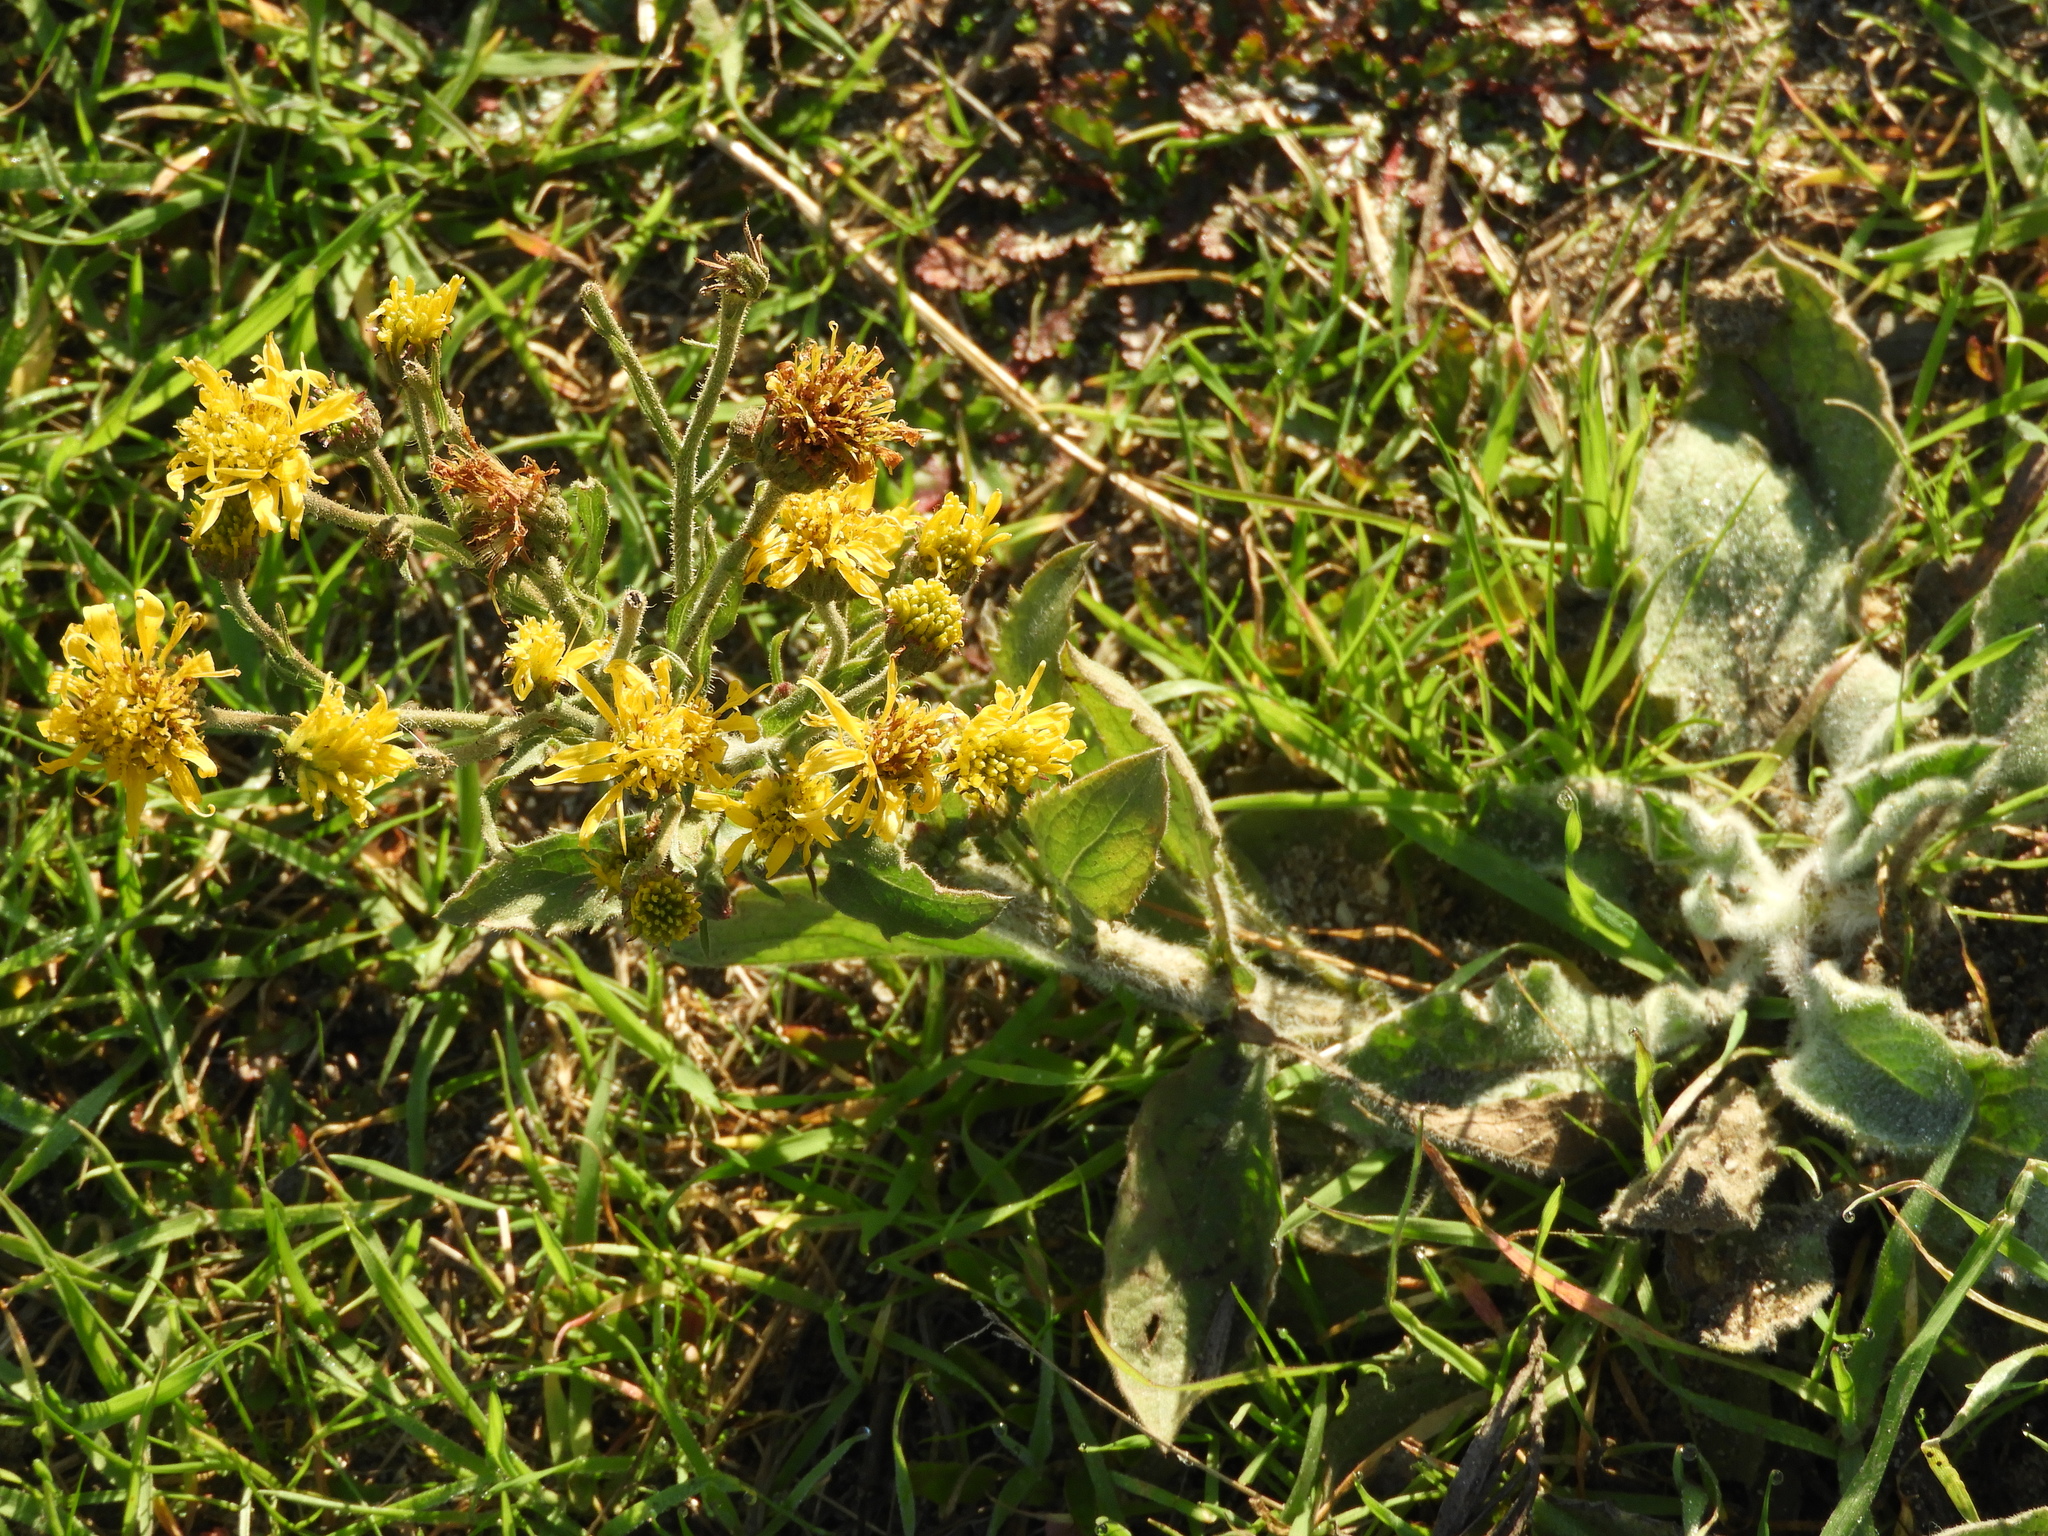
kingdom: Plantae
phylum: Tracheophyta
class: Magnoliopsida
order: Asterales
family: Asteraceae
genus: Heterotheca
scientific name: Heterotheca grandiflora
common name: Telegraphweed
